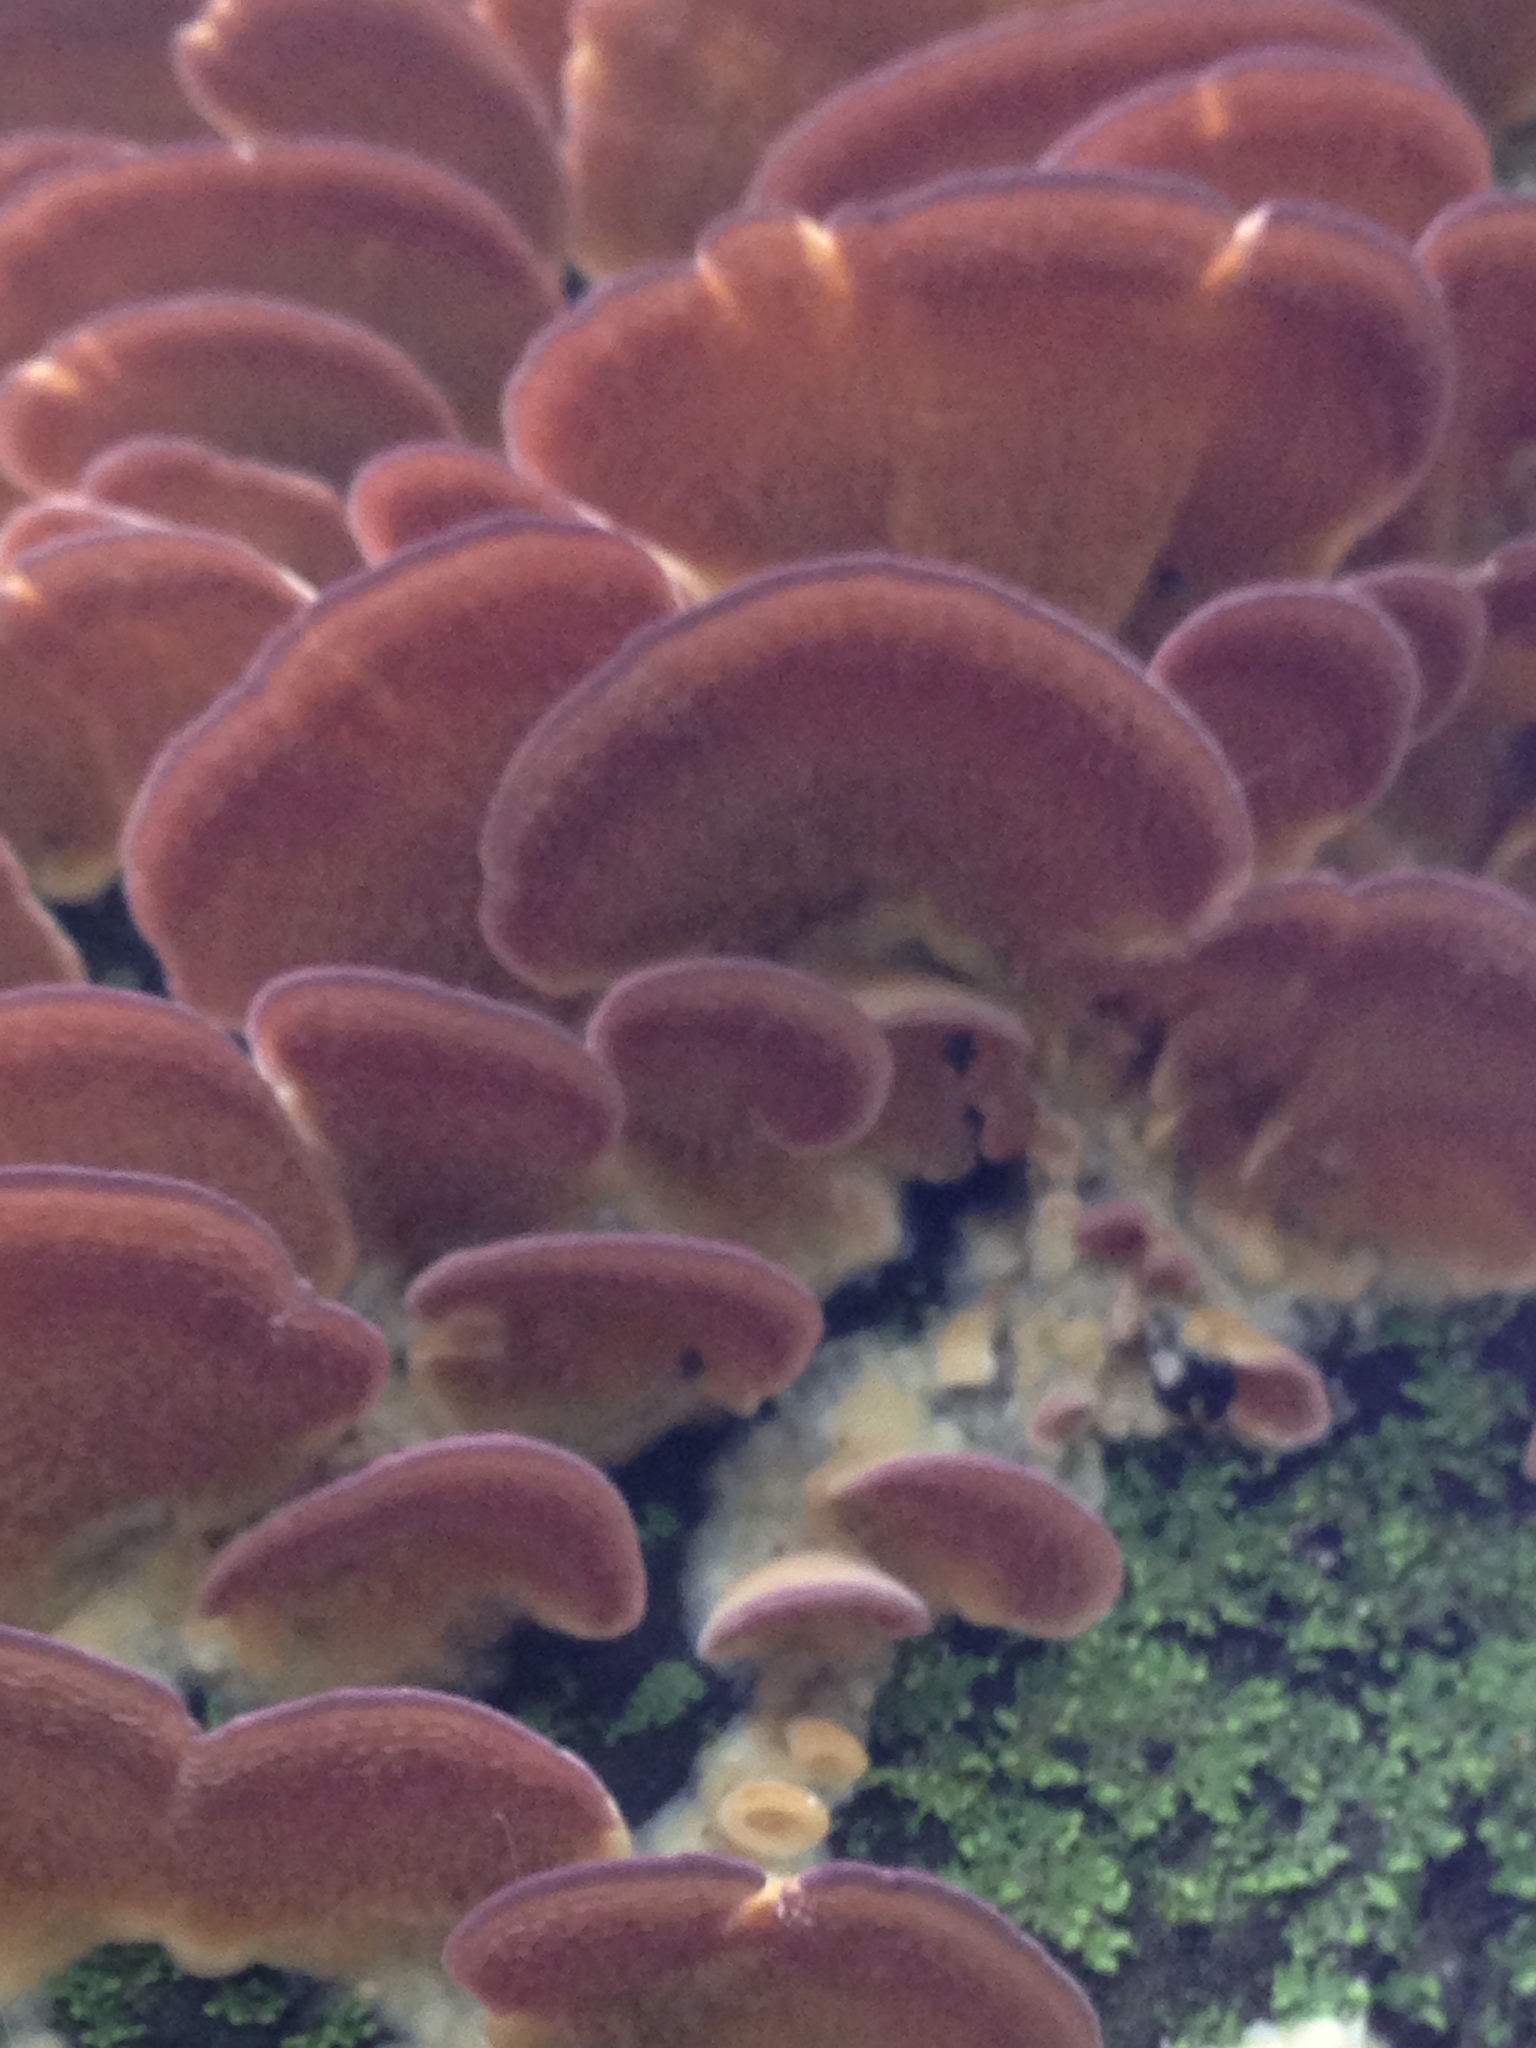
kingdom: Fungi
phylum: Basidiomycota
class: Agaricomycetes
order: Hymenochaetales
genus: Trichaptum
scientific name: Trichaptum biforme
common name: Violet-toothed polypore
